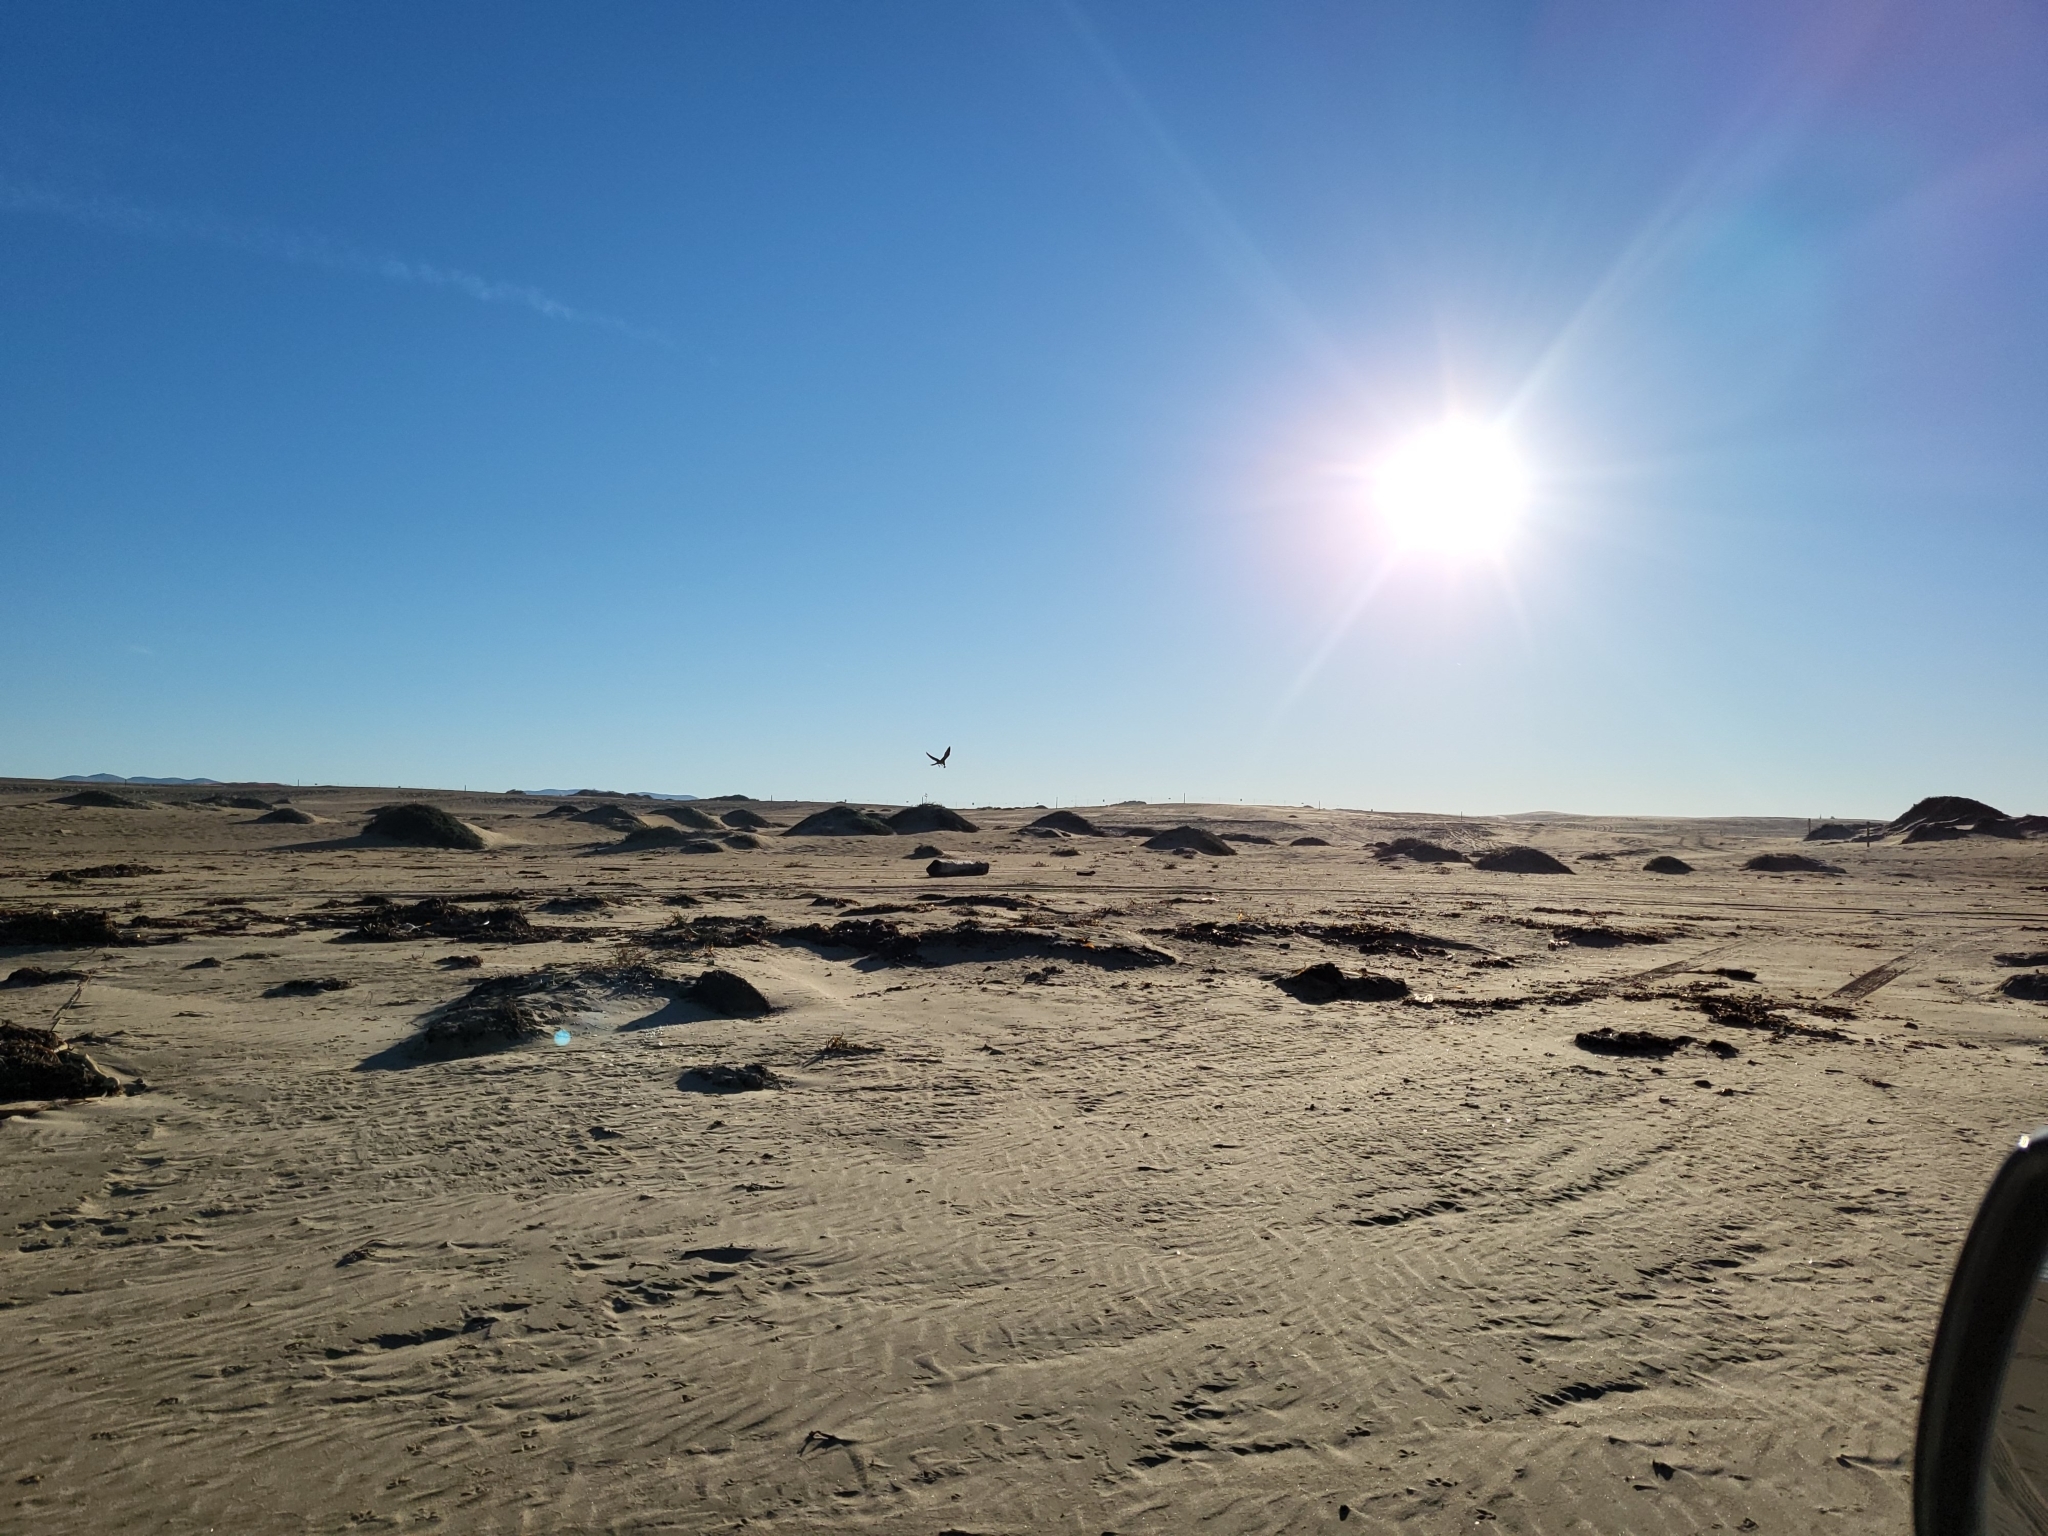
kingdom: Animalia
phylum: Chordata
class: Aves
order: Falconiformes
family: Falconidae
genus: Falco
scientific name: Falco peregrinus
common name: Peregrine falcon
